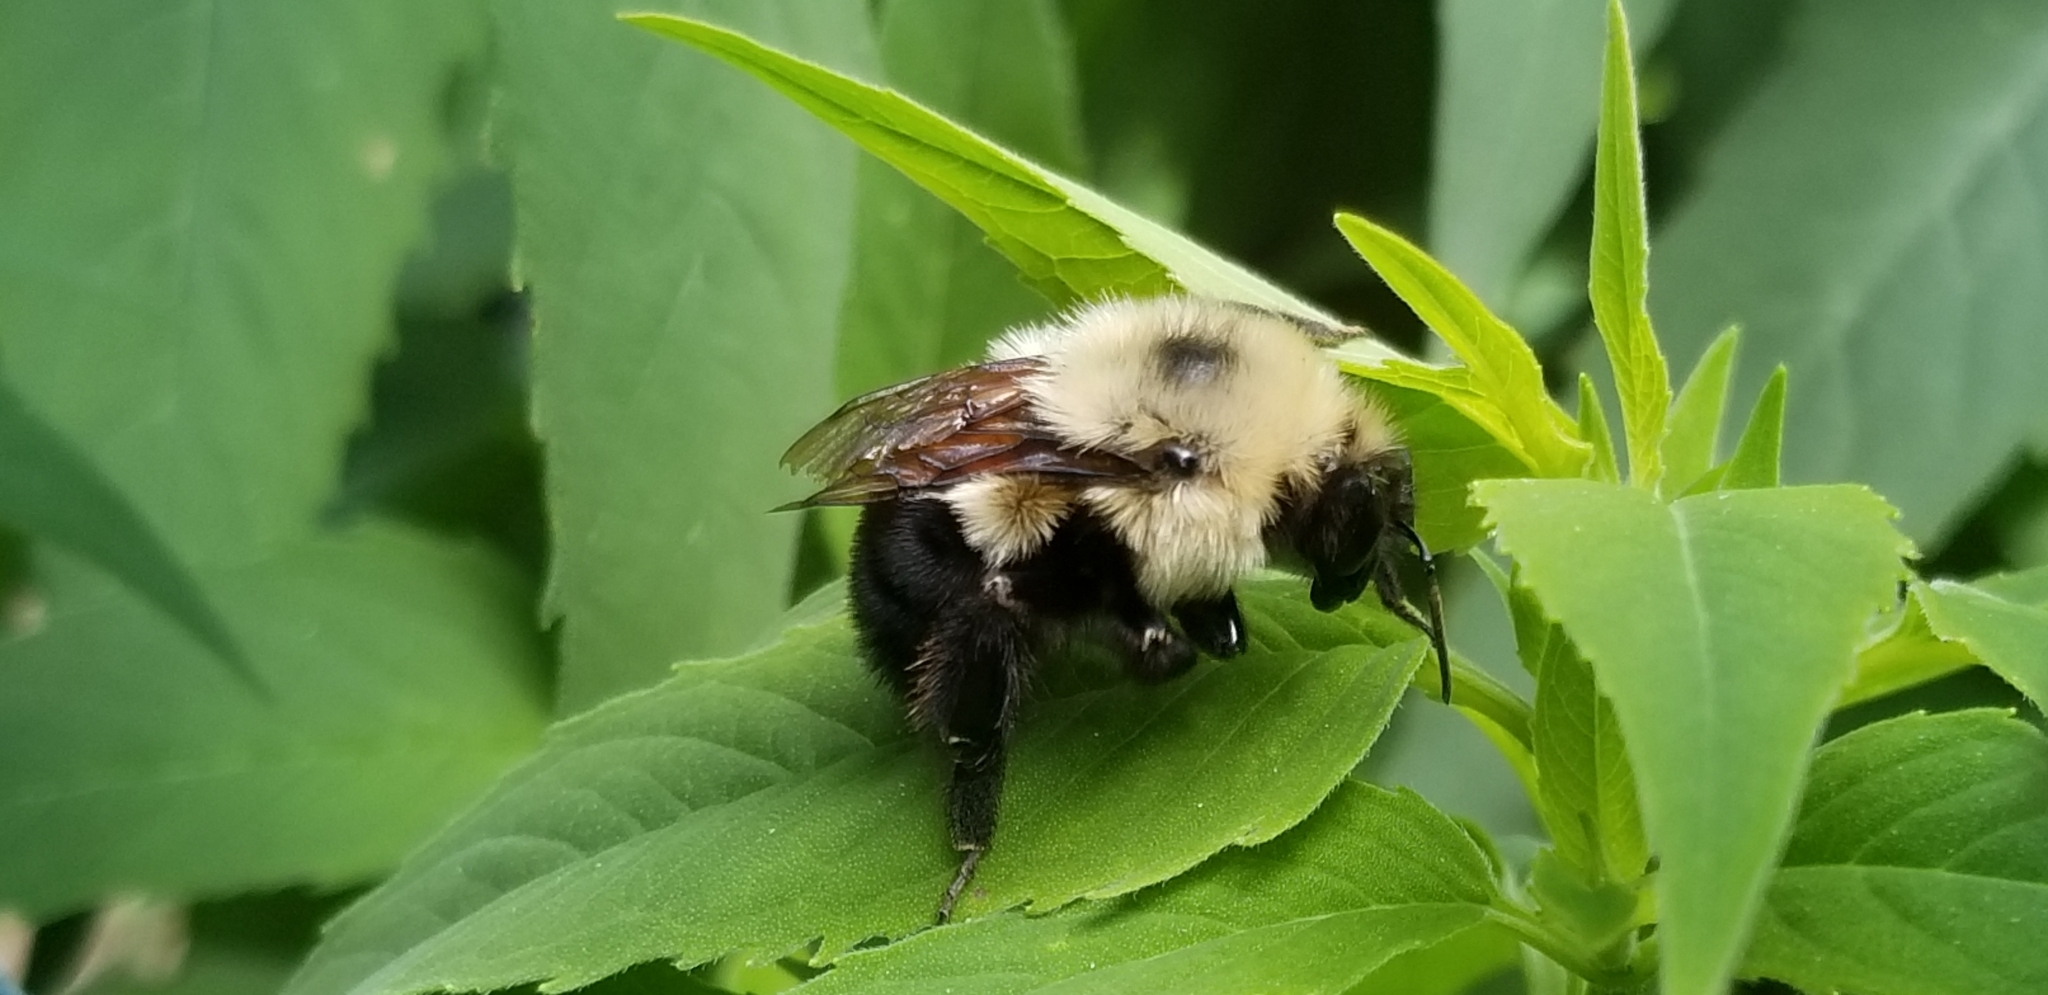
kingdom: Animalia
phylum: Arthropoda
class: Insecta
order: Hymenoptera
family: Apidae
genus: Bombus
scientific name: Bombus bimaculatus
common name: Two-spotted bumble bee
